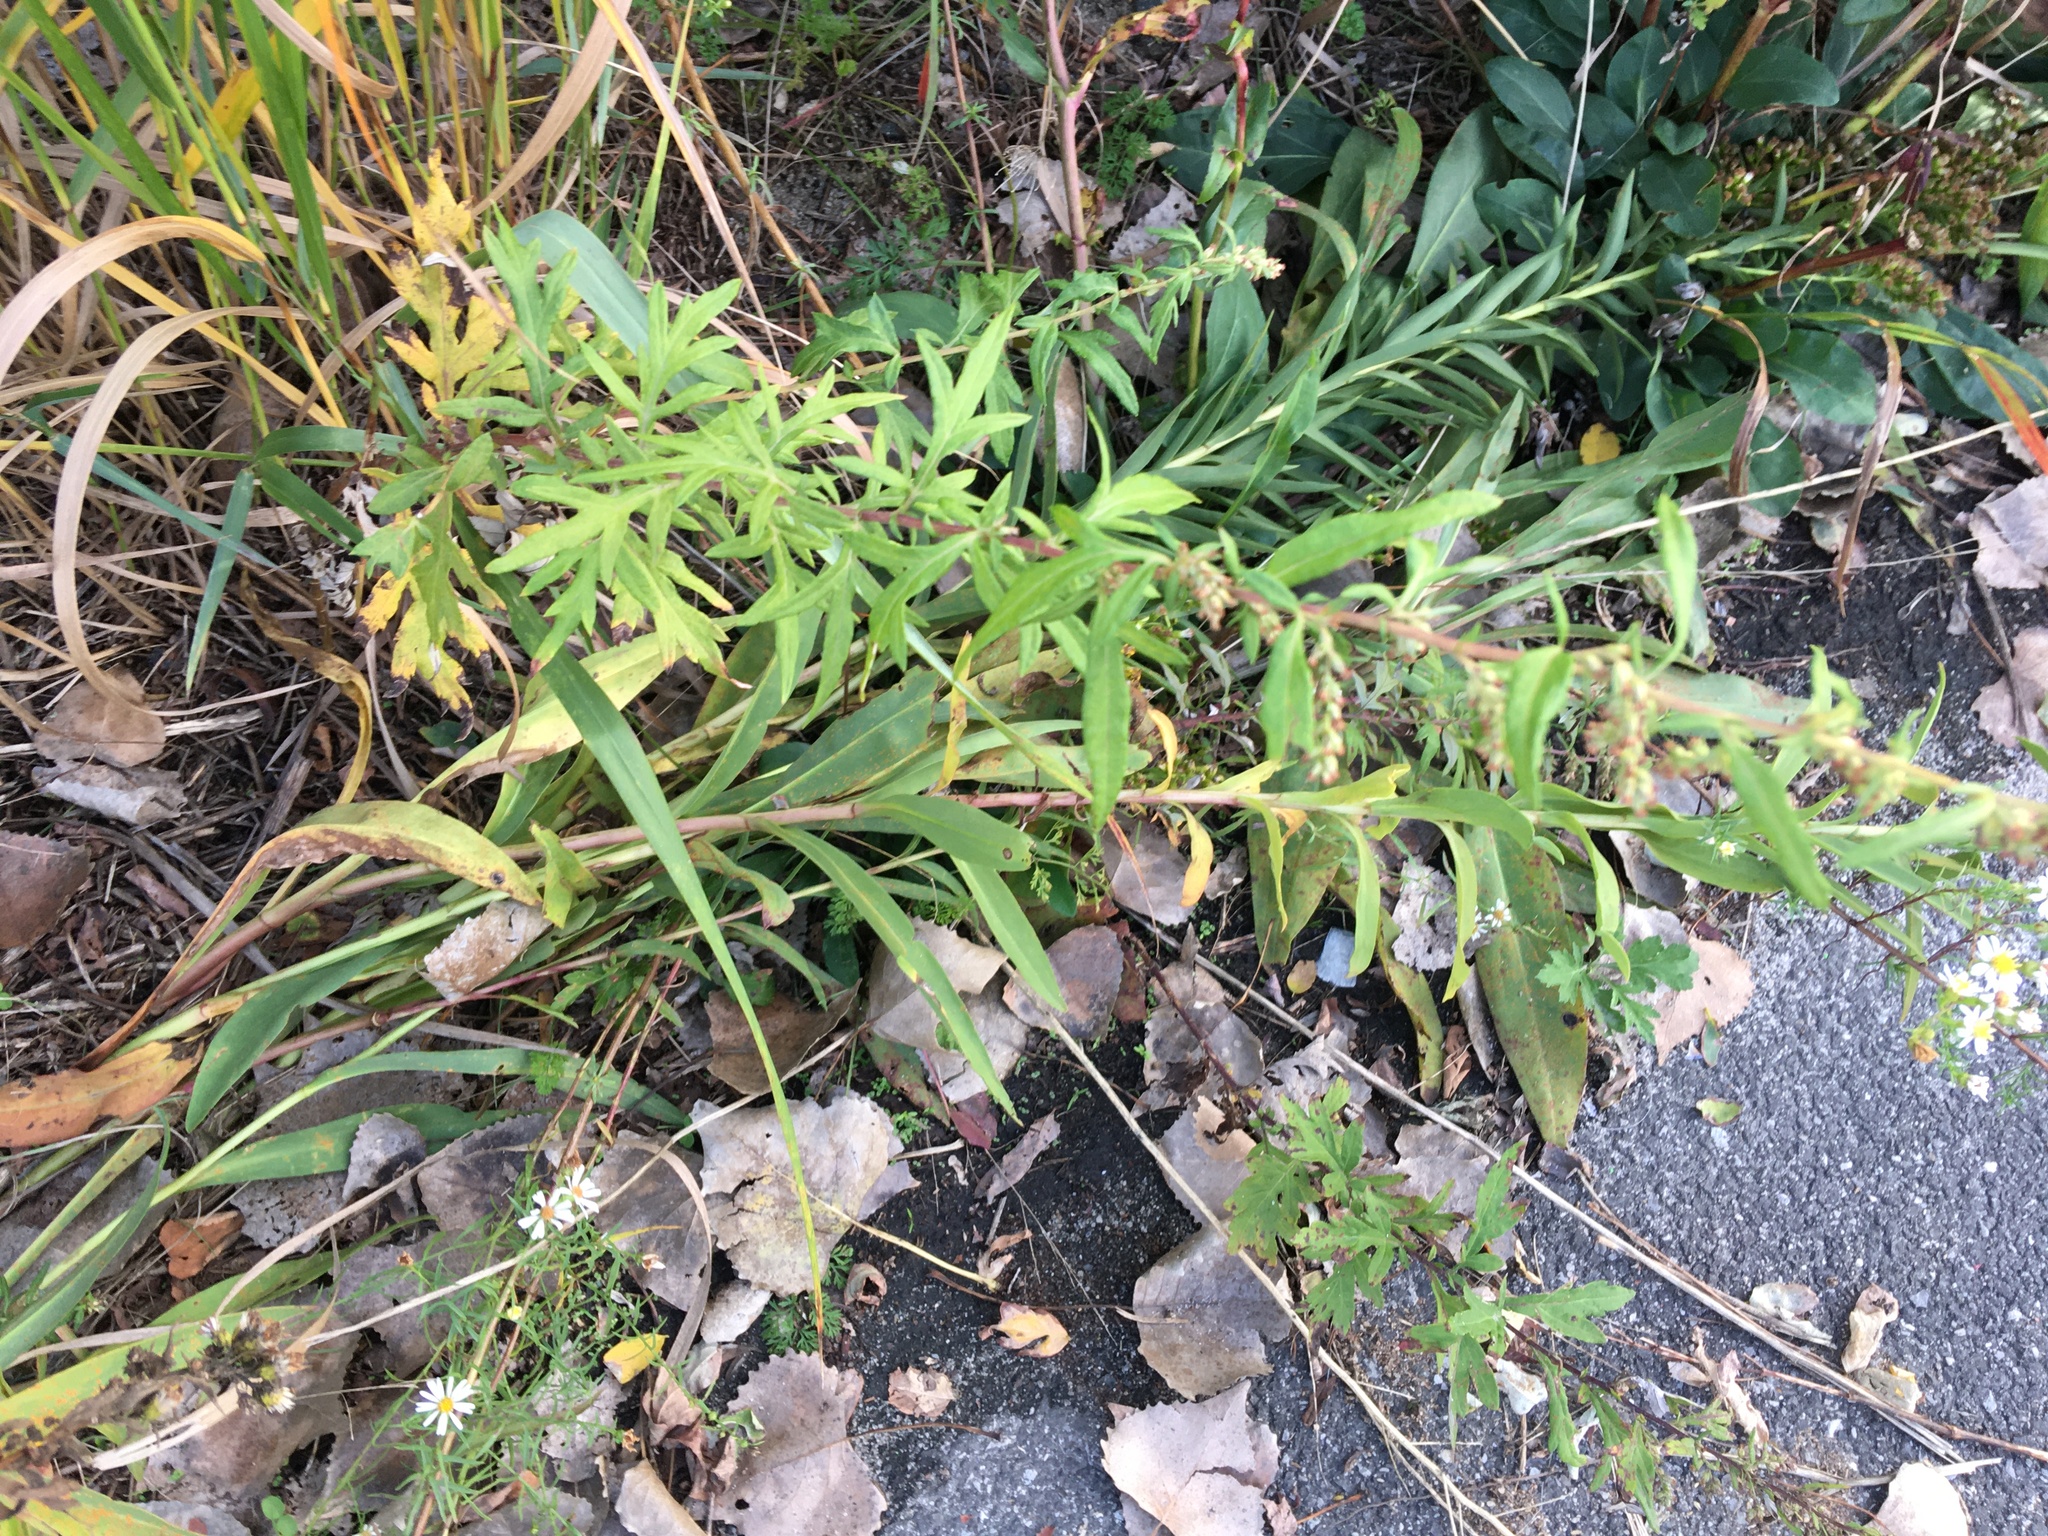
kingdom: Plantae
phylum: Tracheophyta
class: Magnoliopsida
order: Asterales
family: Asteraceae
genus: Artemisia
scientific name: Artemisia vulgaris
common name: Mugwort
